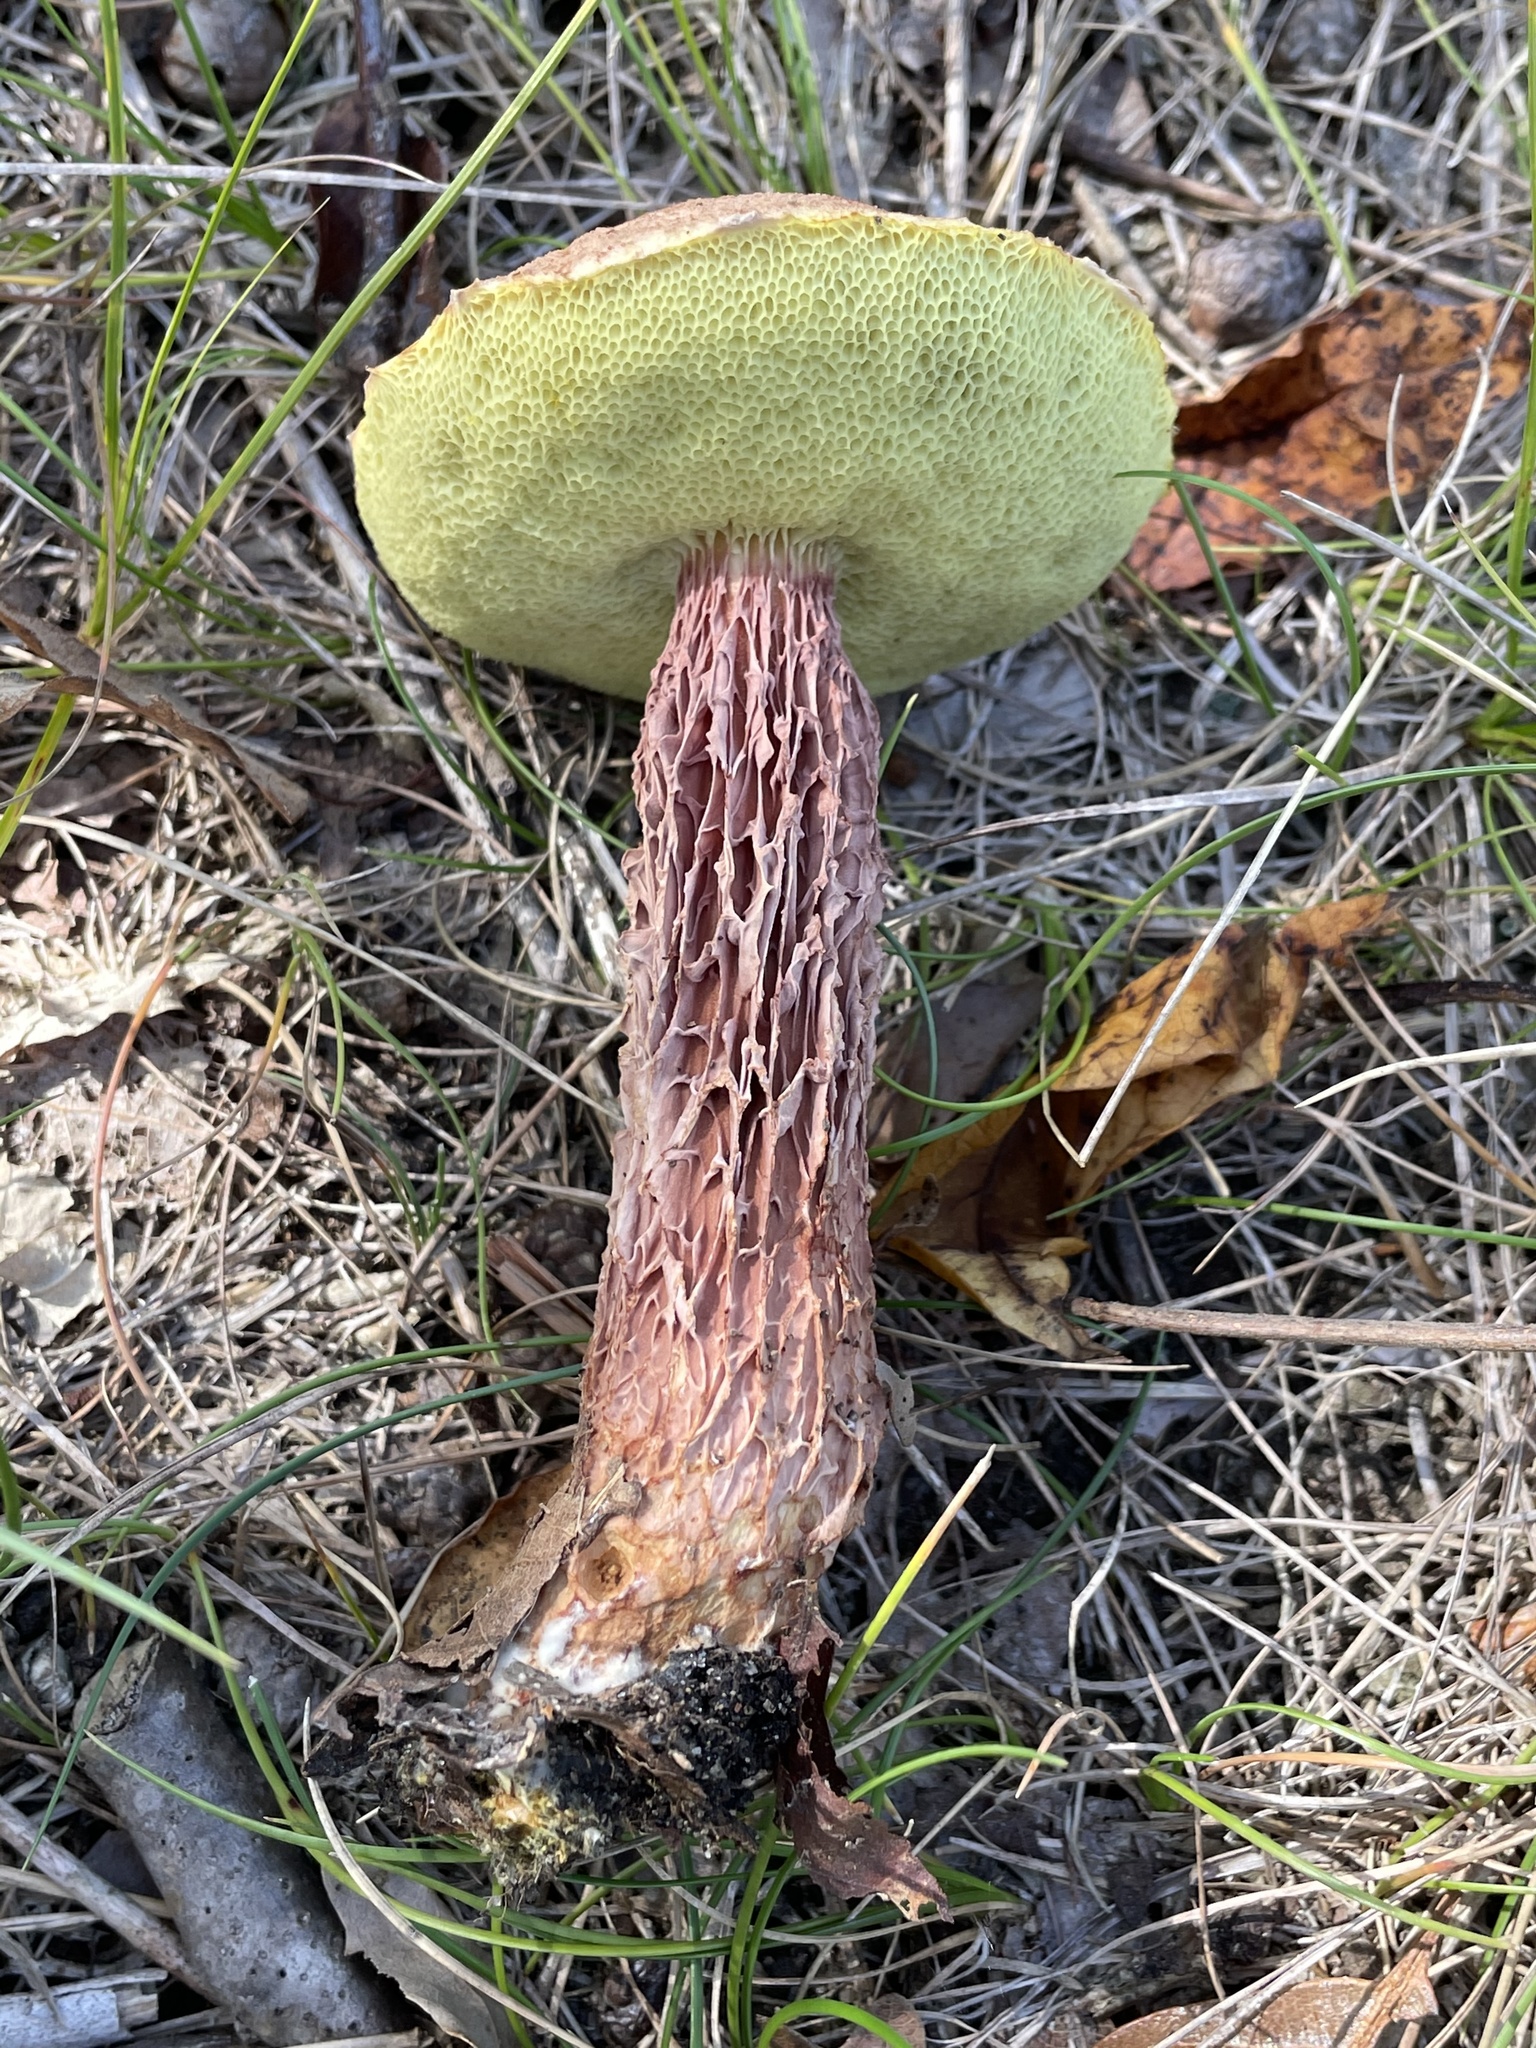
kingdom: Fungi
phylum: Basidiomycota
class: Agaricomycetes
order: Boletales
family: Boletaceae
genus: Aureoboletus
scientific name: Aureoboletus russellii
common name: Russell's bolete
